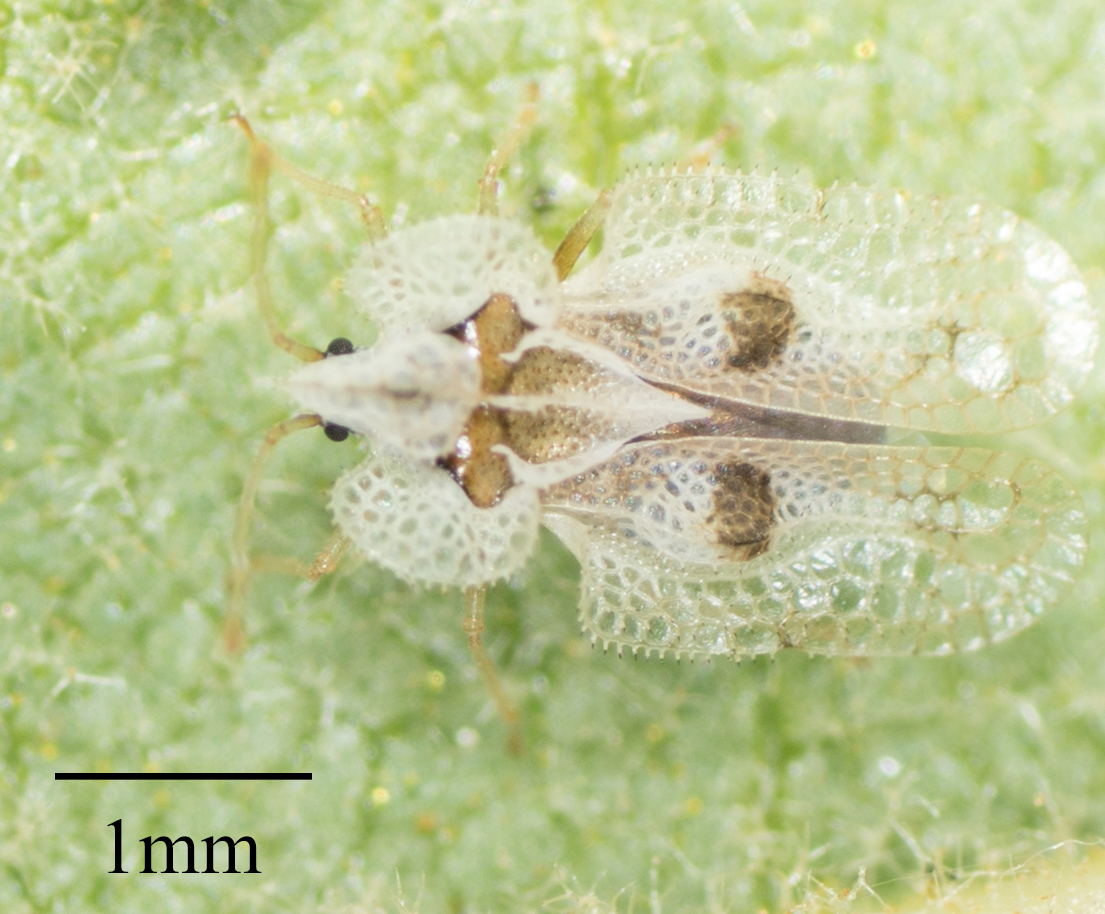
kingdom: Animalia
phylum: Arthropoda
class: Insecta
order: Hemiptera
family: Tingidae
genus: Corythucha
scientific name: Corythucha confraterna
